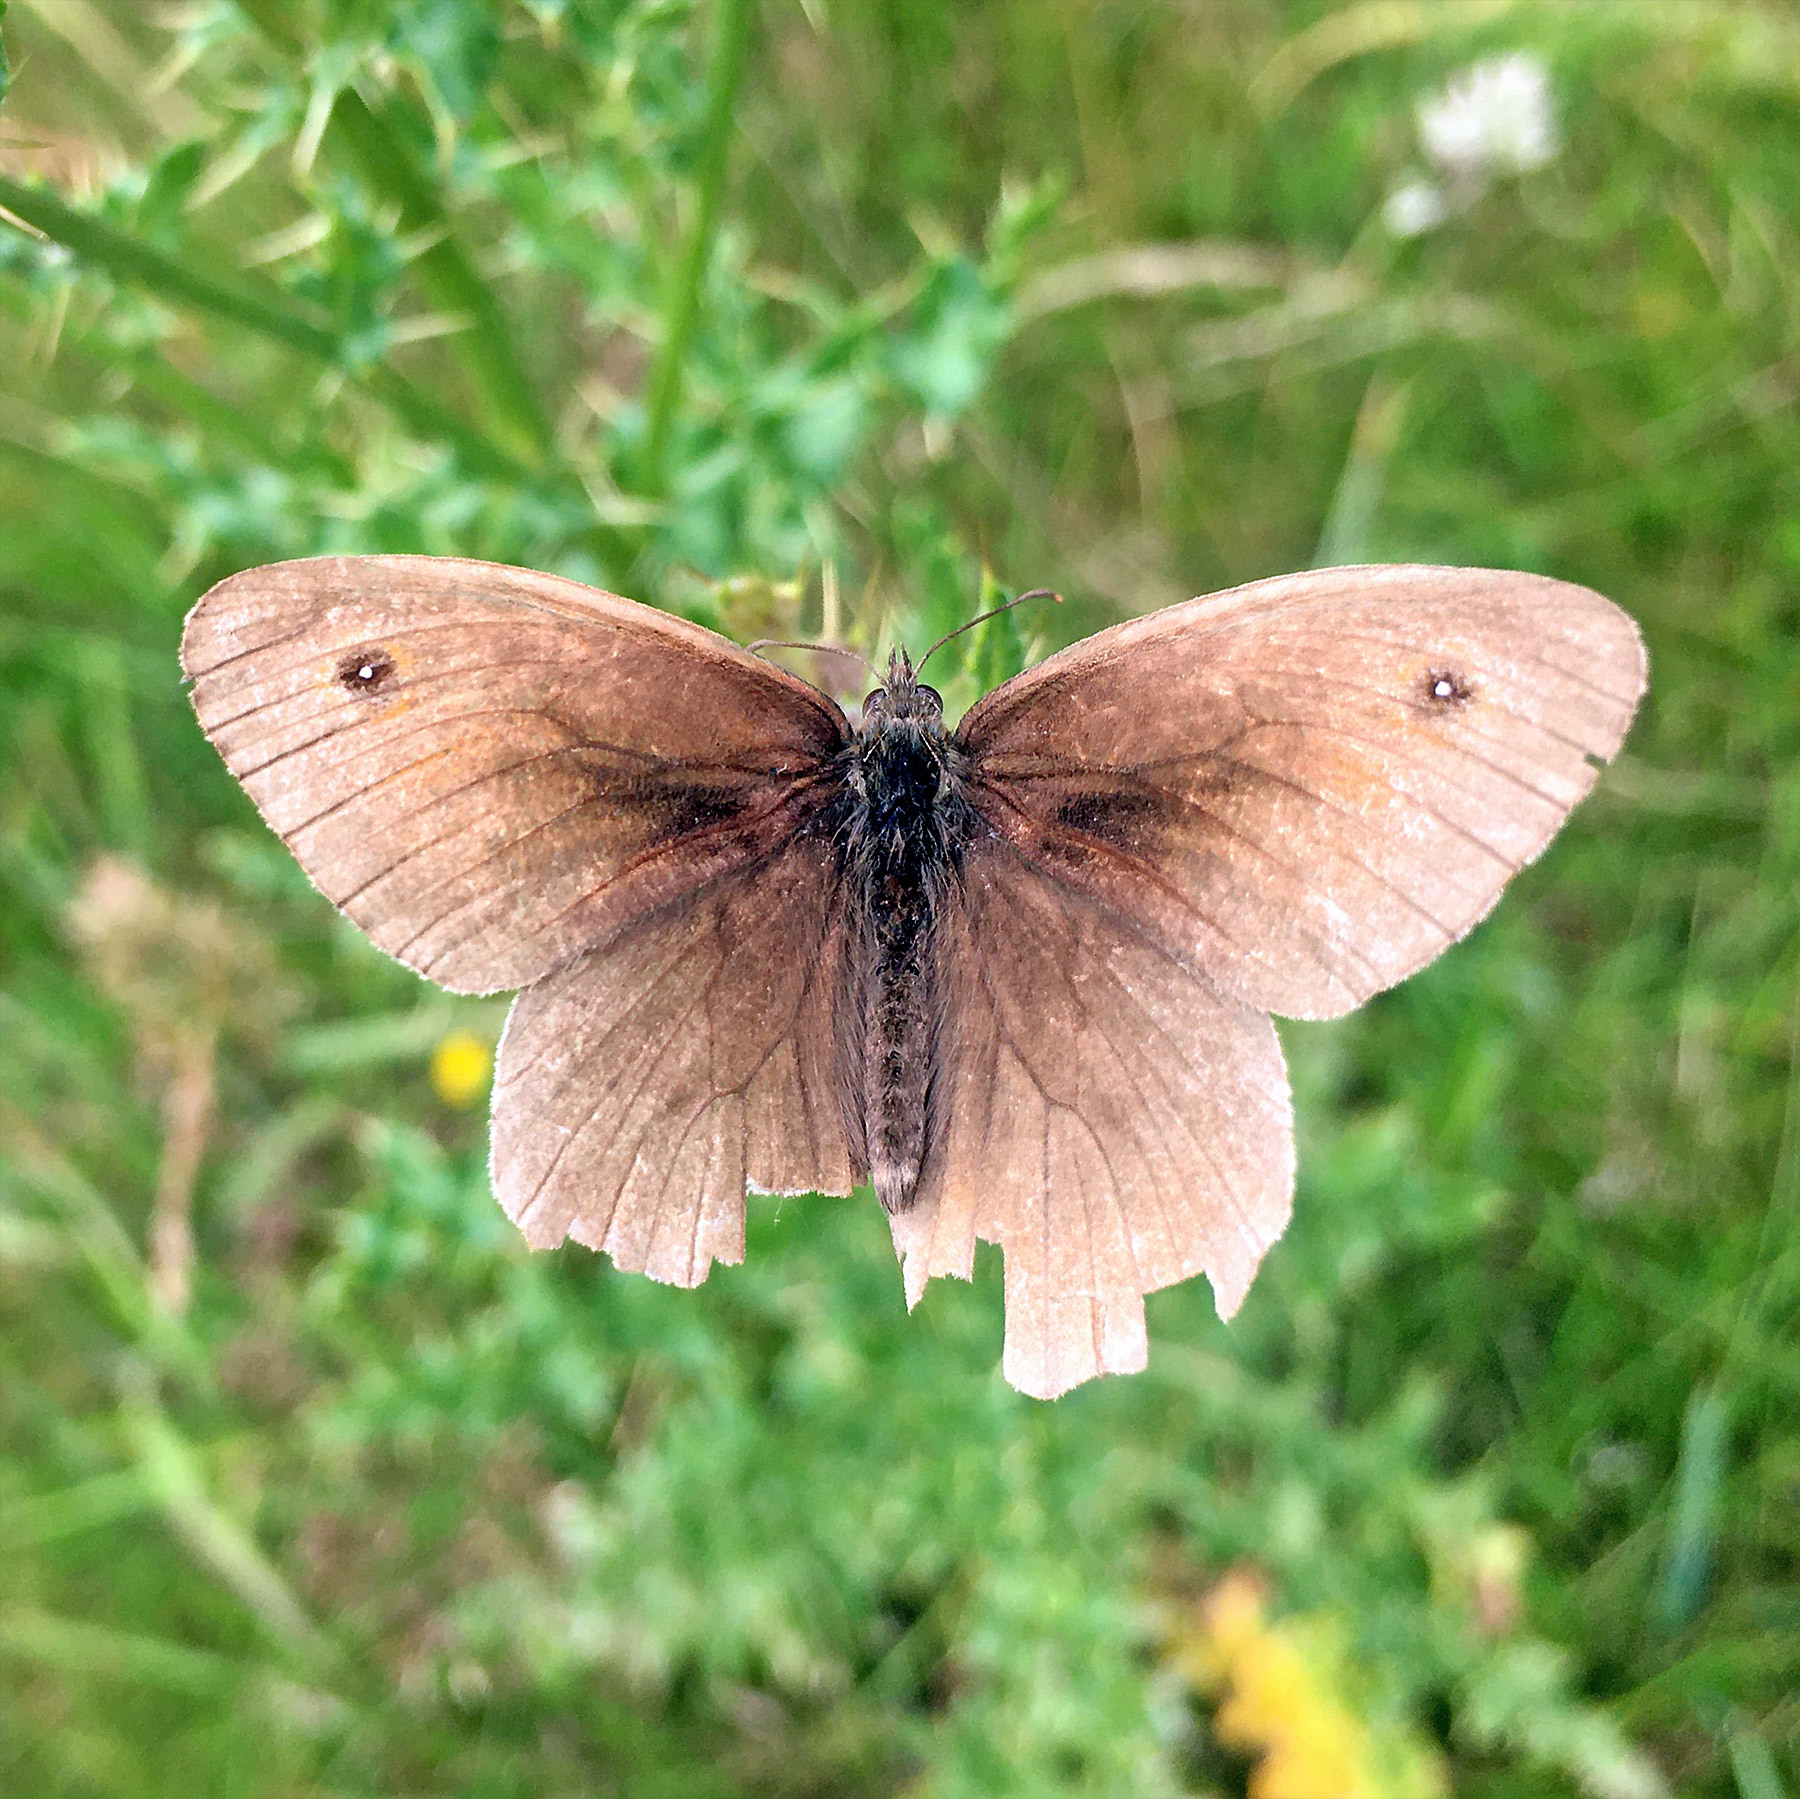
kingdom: Animalia
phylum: Arthropoda
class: Insecta
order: Lepidoptera
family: Nymphalidae
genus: Maniola
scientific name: Maniola jurtina
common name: Meadow brown
